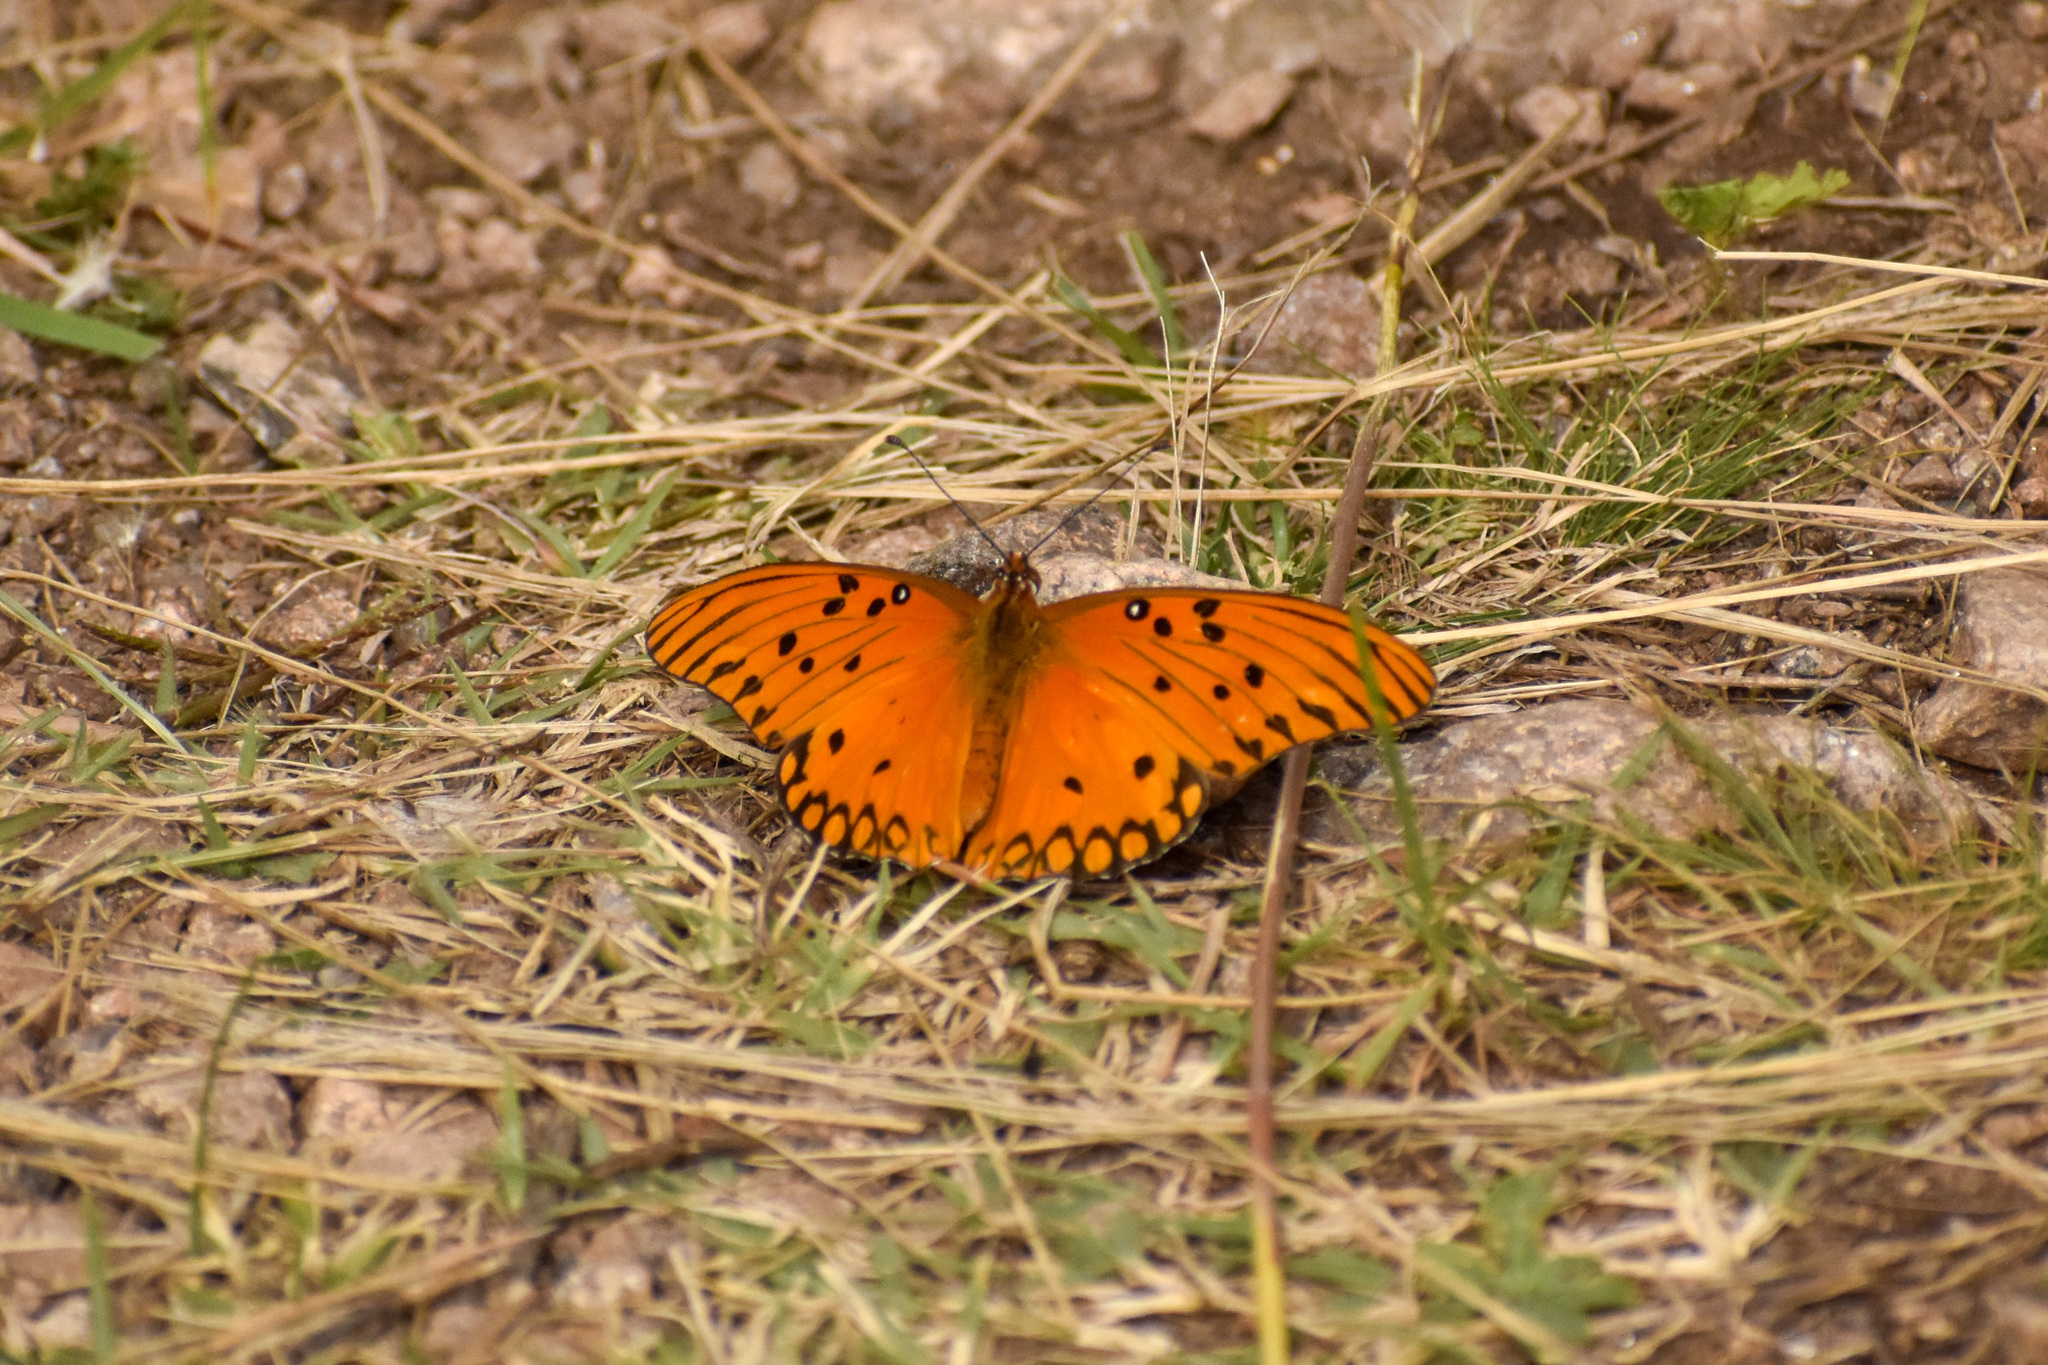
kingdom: Animalia
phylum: Arthropoda
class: Insecta
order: Lepidoptera
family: Nymphalidae
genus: Dione
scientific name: Dione vanillae
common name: Gulf fritillary
